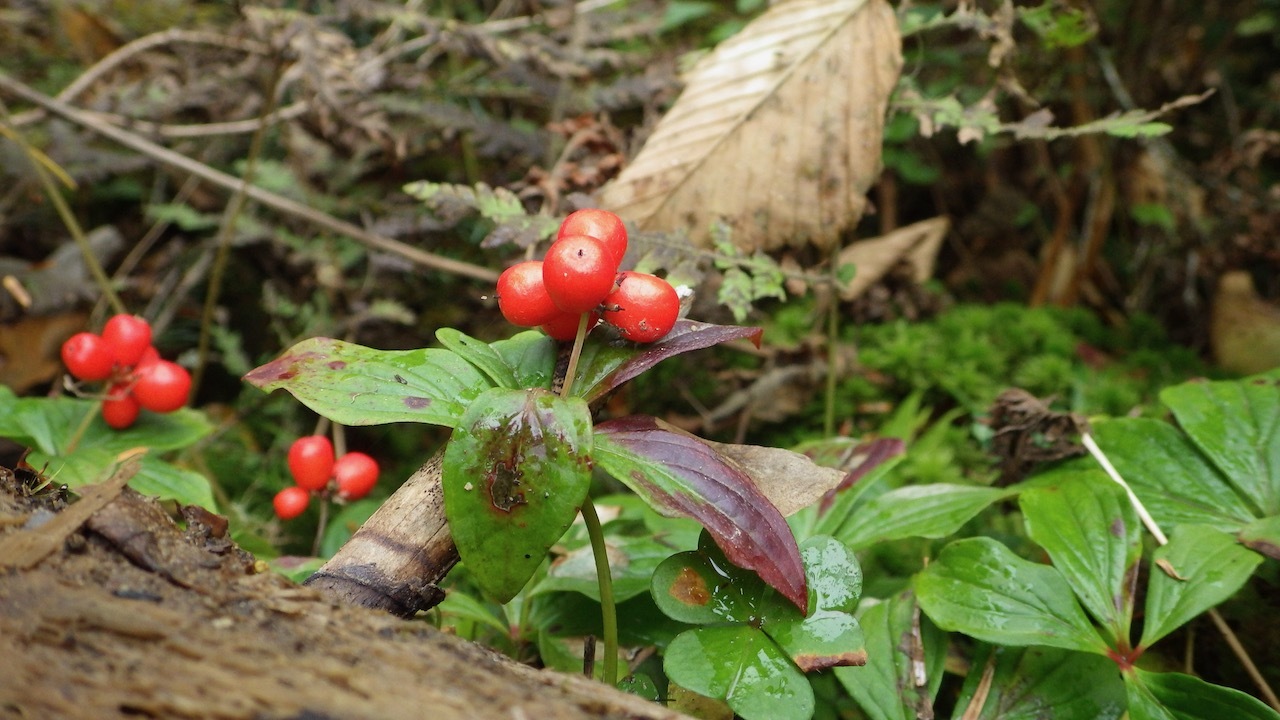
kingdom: Plantae
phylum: Tracheophyta
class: Magnoliopsida
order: Cornales
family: Cornaceae
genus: Cornus
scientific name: Cornus canadensis
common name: Creeping dogwood
